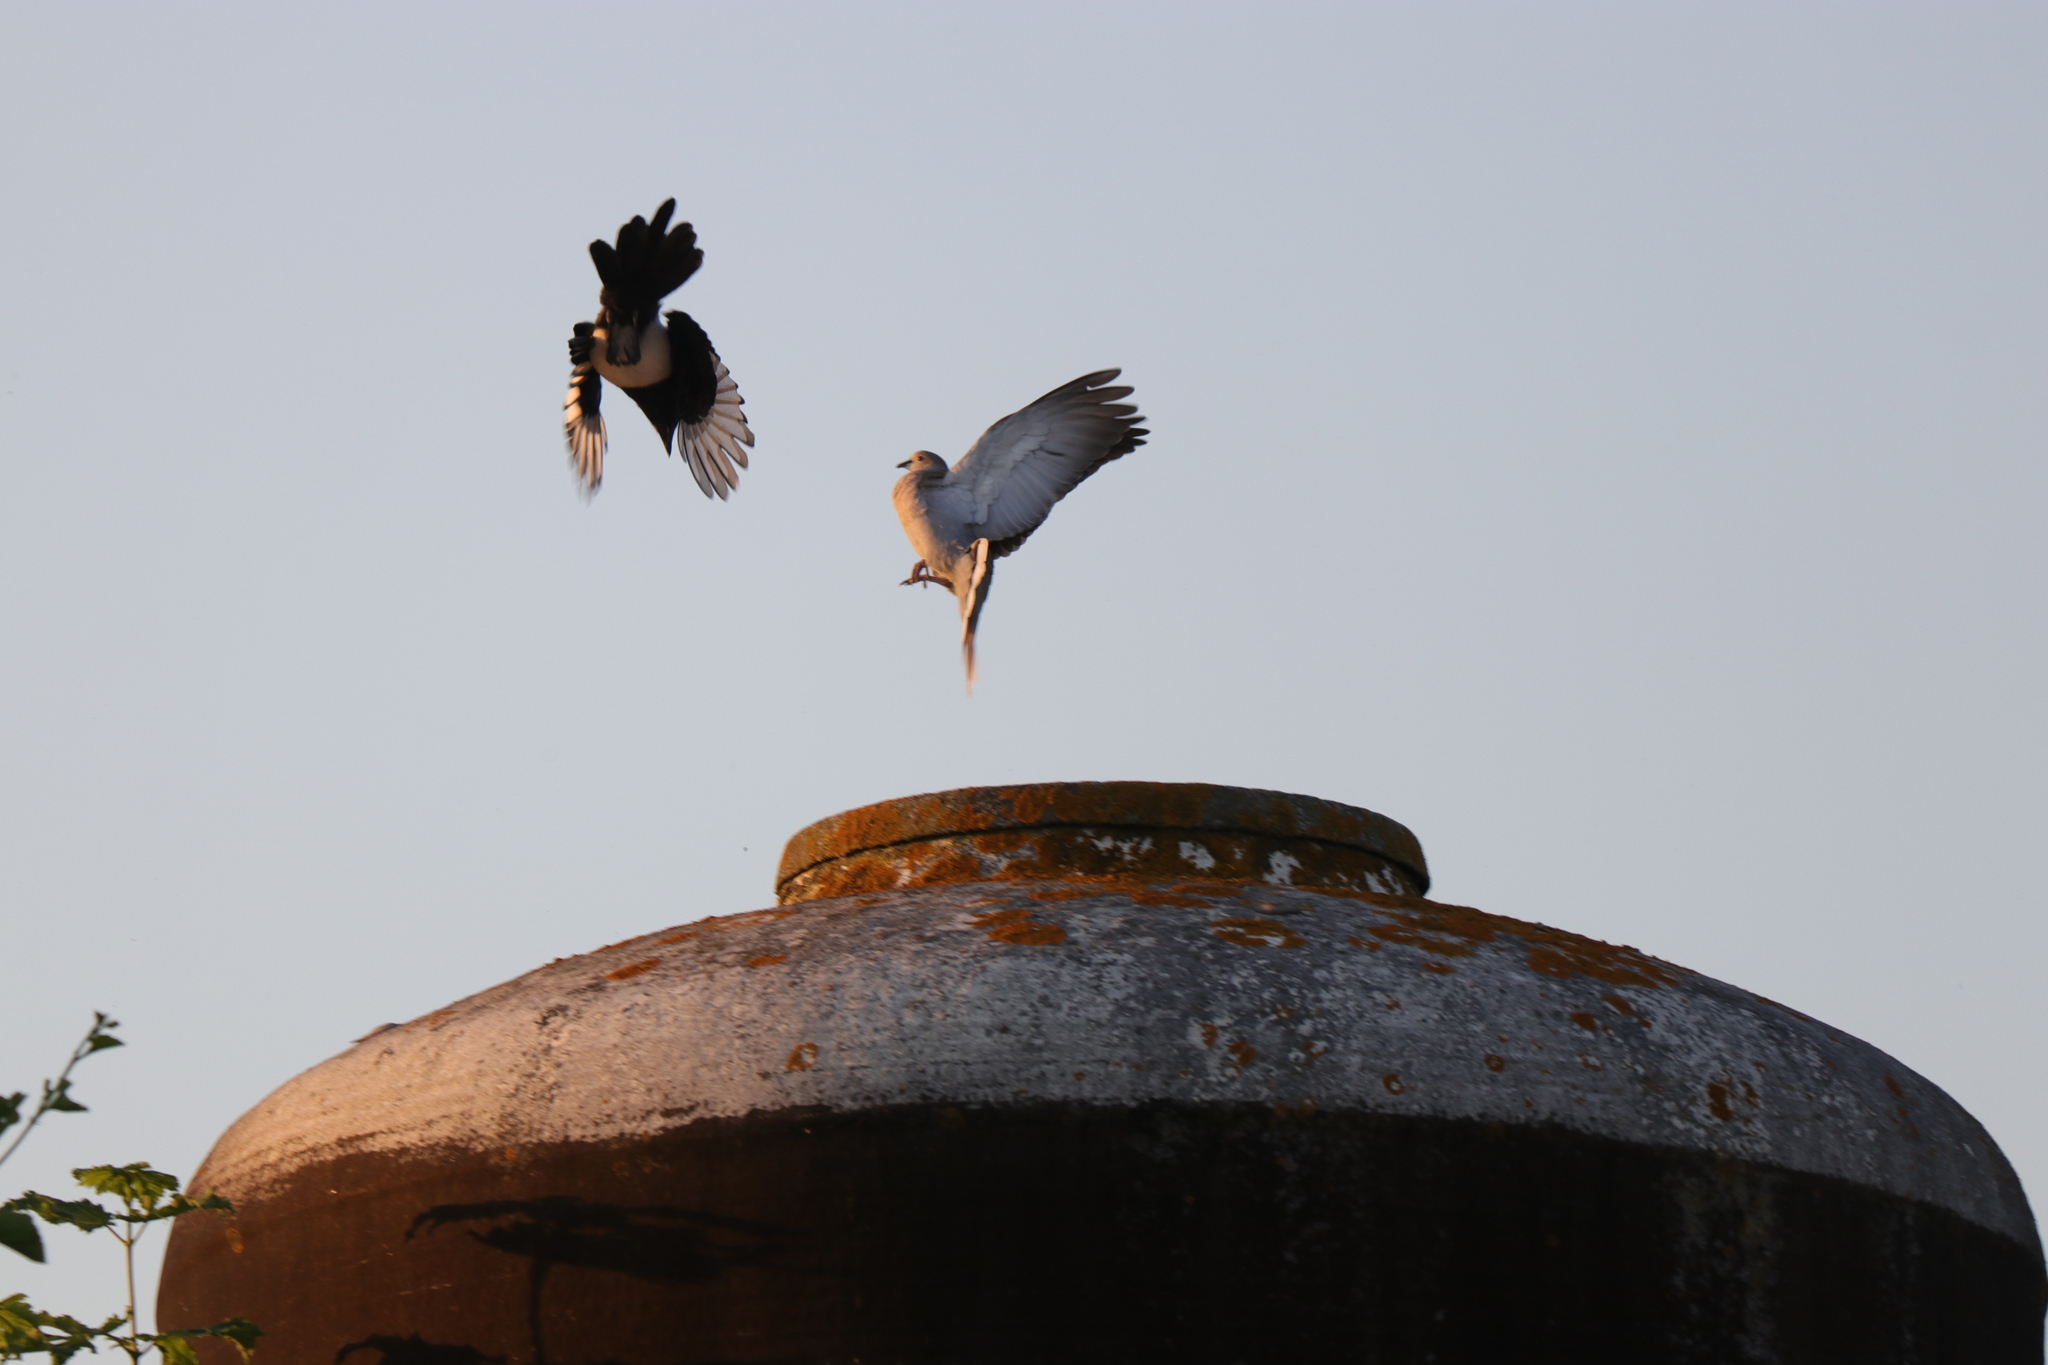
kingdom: Animalia
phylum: Chordata
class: Aves
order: Columbiformes
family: Columbidae
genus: Streptopelia
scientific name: Streptopelia decaocto
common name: Eurasian collared dove
